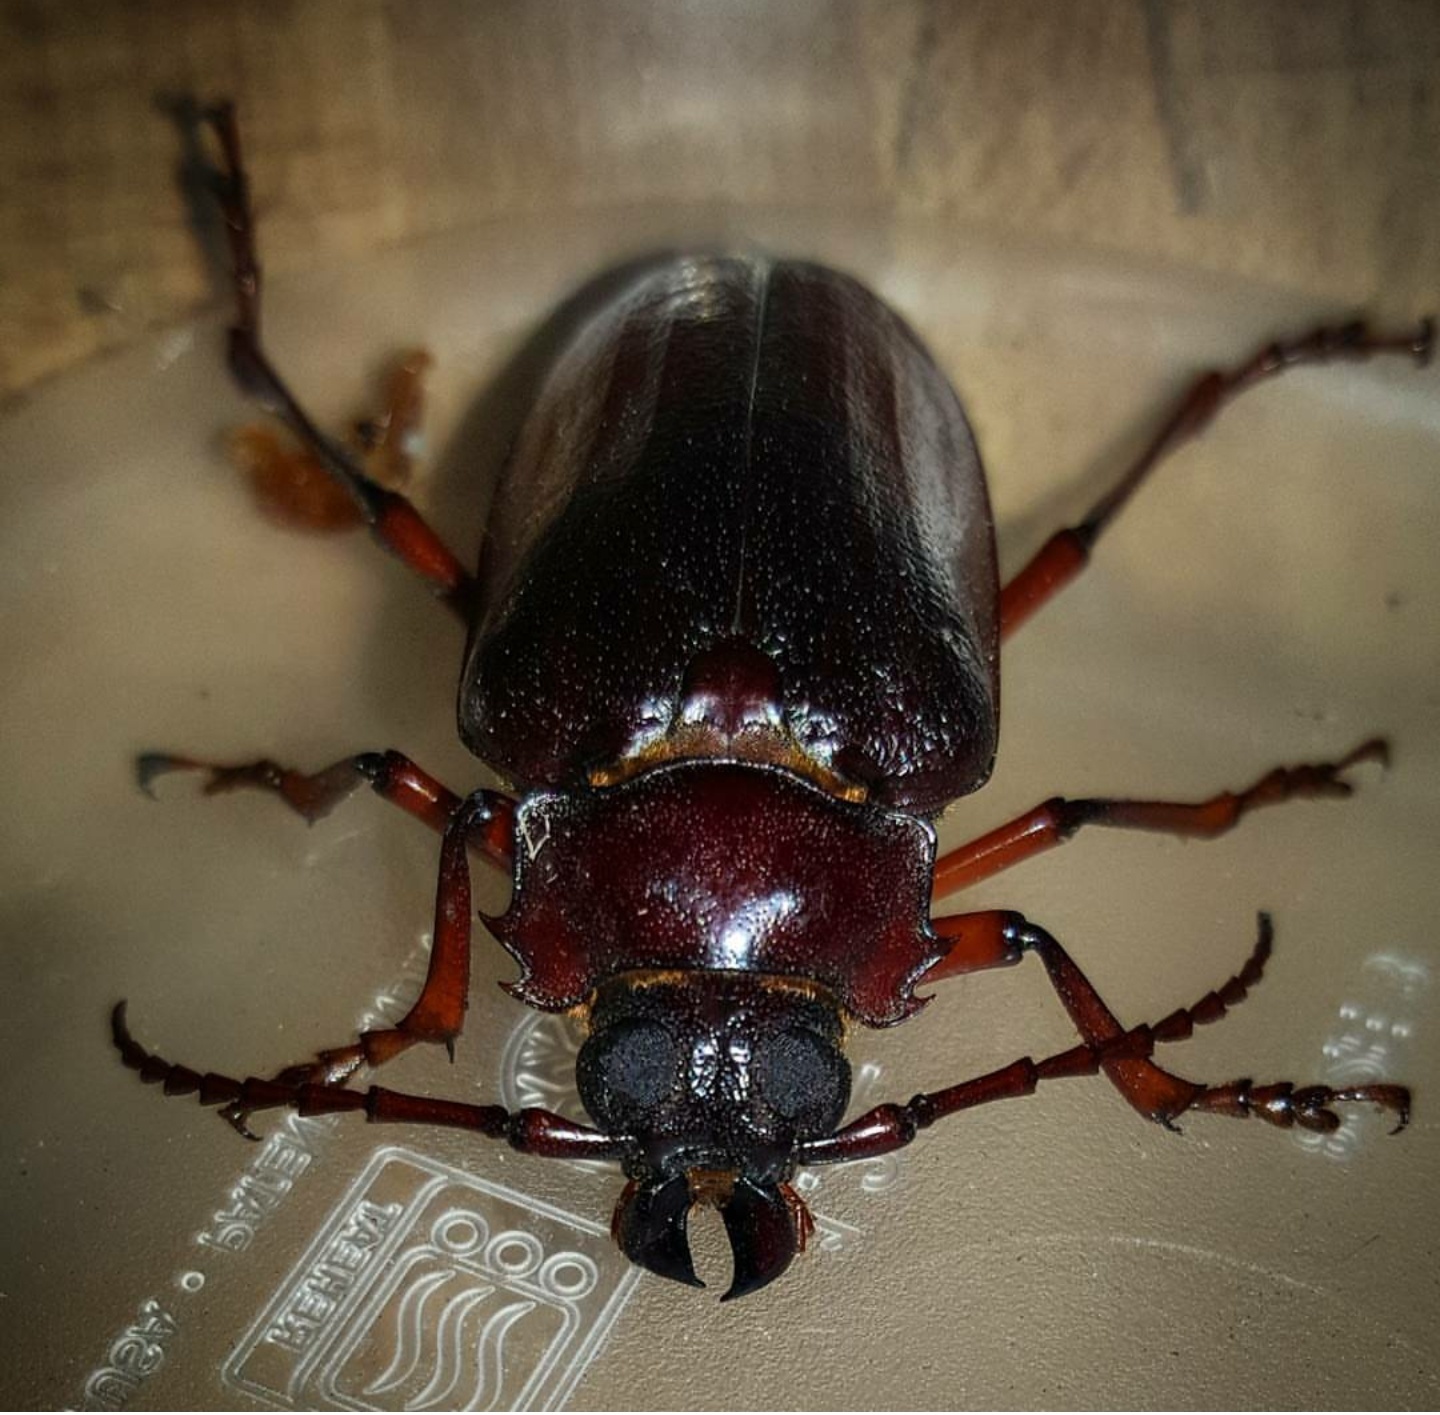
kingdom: Animalia
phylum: Arthropoda
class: Insecta
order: Coleoptera
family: Cerambycidae
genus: Prionus
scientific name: Prionus pocularis
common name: Tooth-necked longhorn beetle
